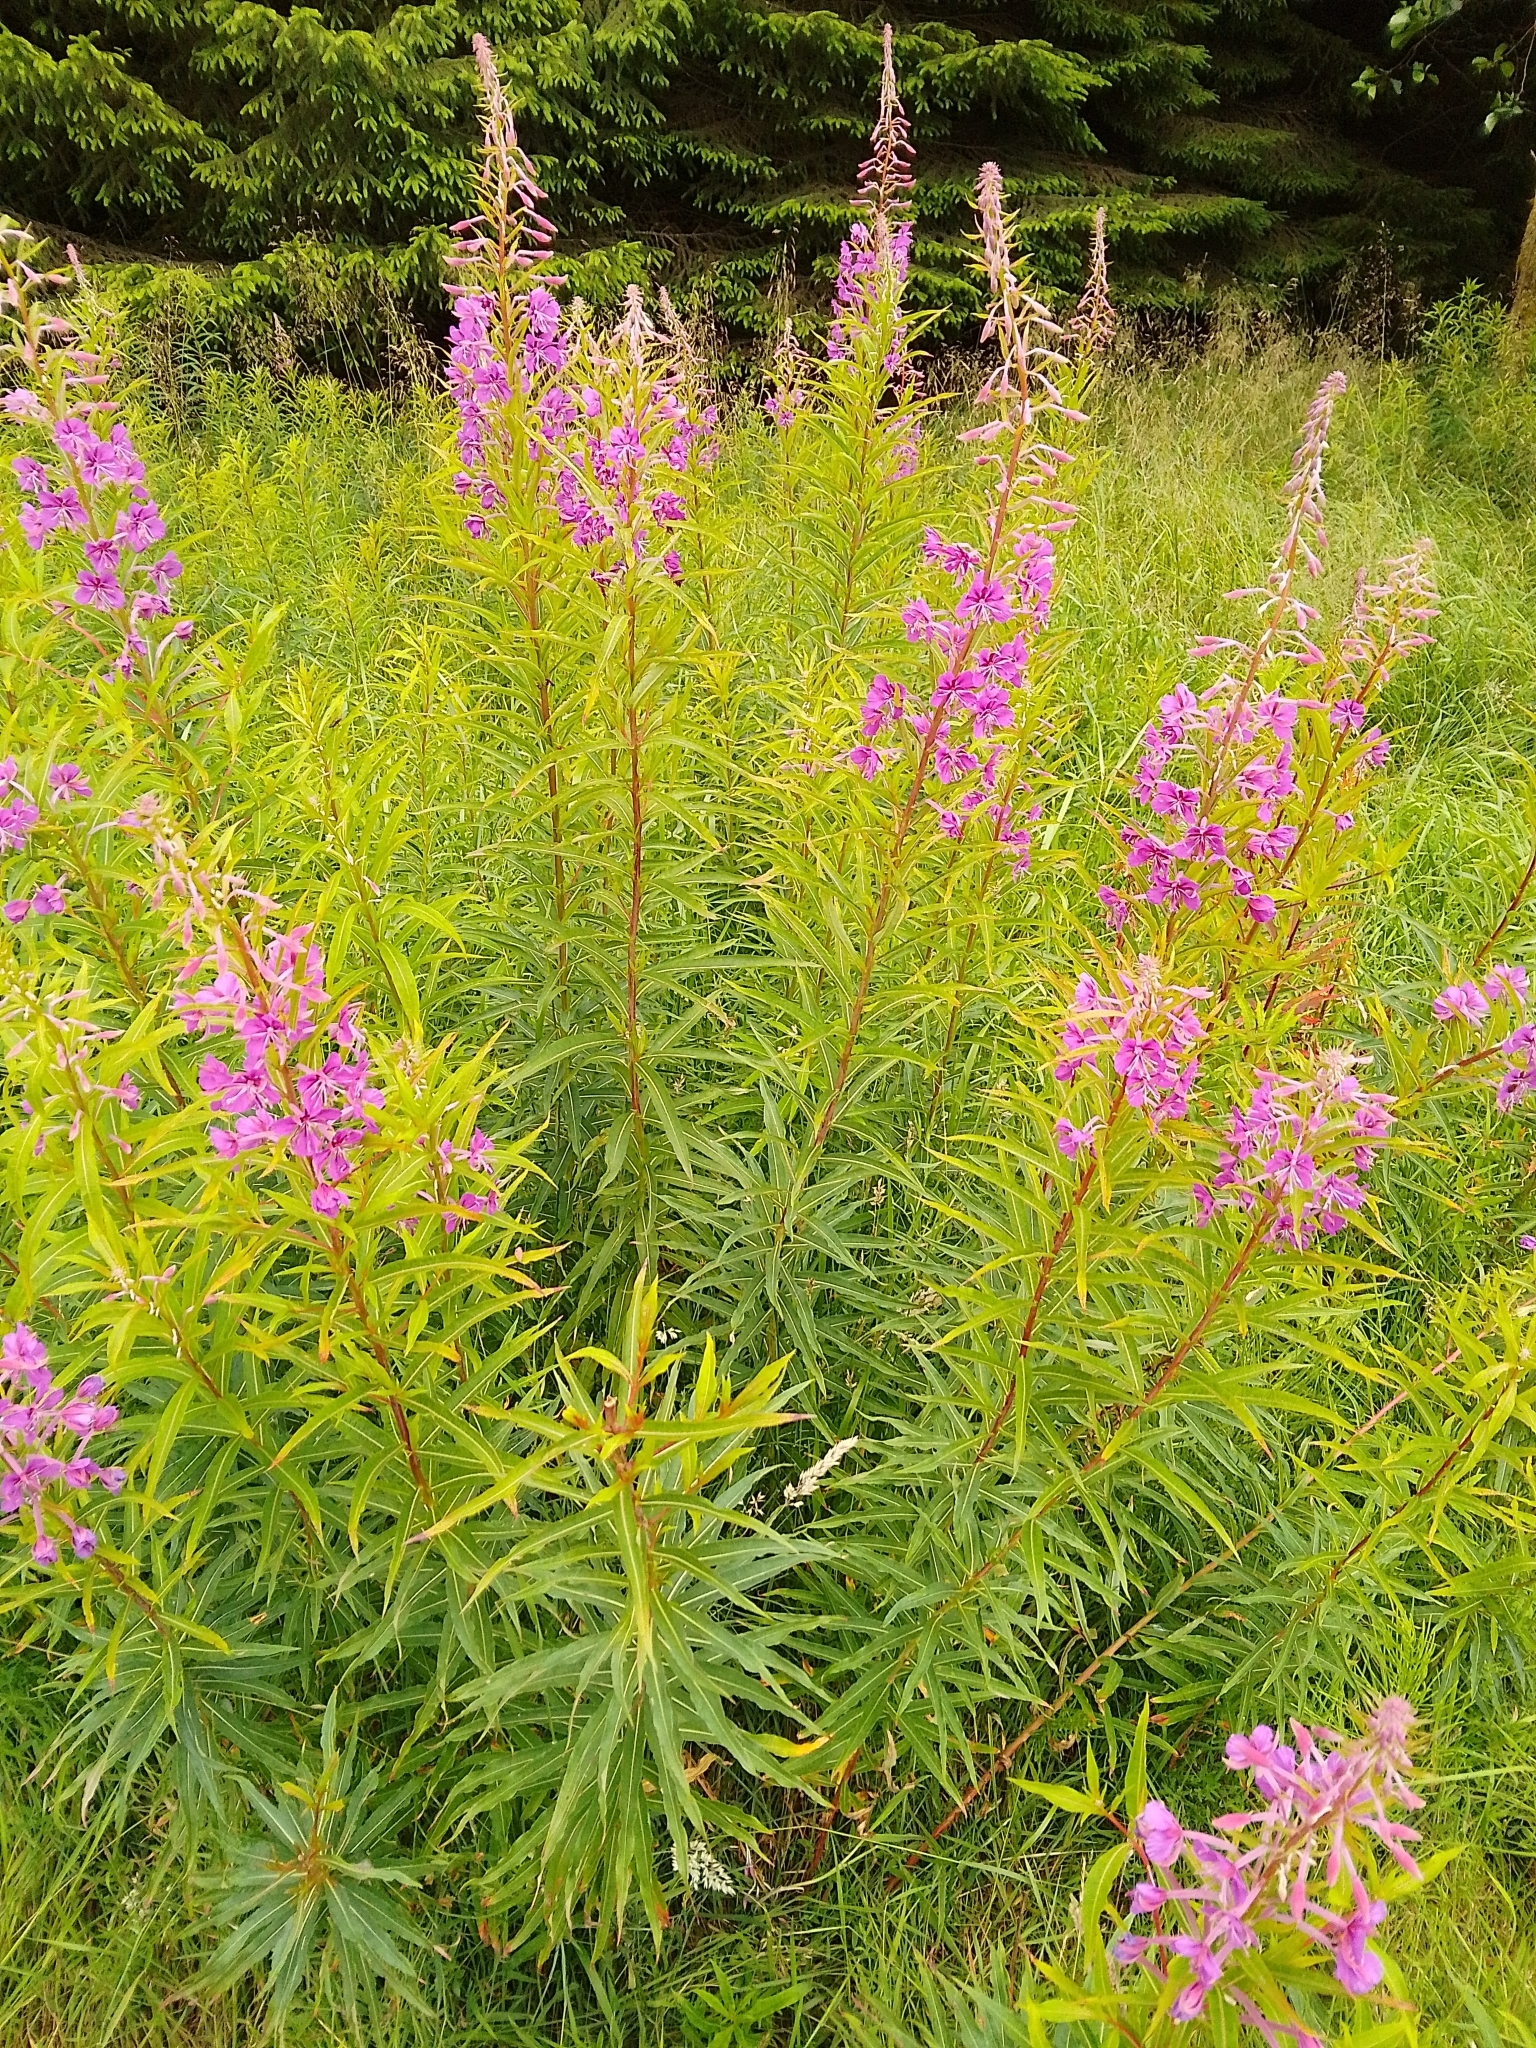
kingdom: Plantae
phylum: Tracheophyta
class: Magnoliopsida
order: Myrtales
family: Onagraceae
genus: Chamaenerion
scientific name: Chamaenerion angustifolium
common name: Fireweed
